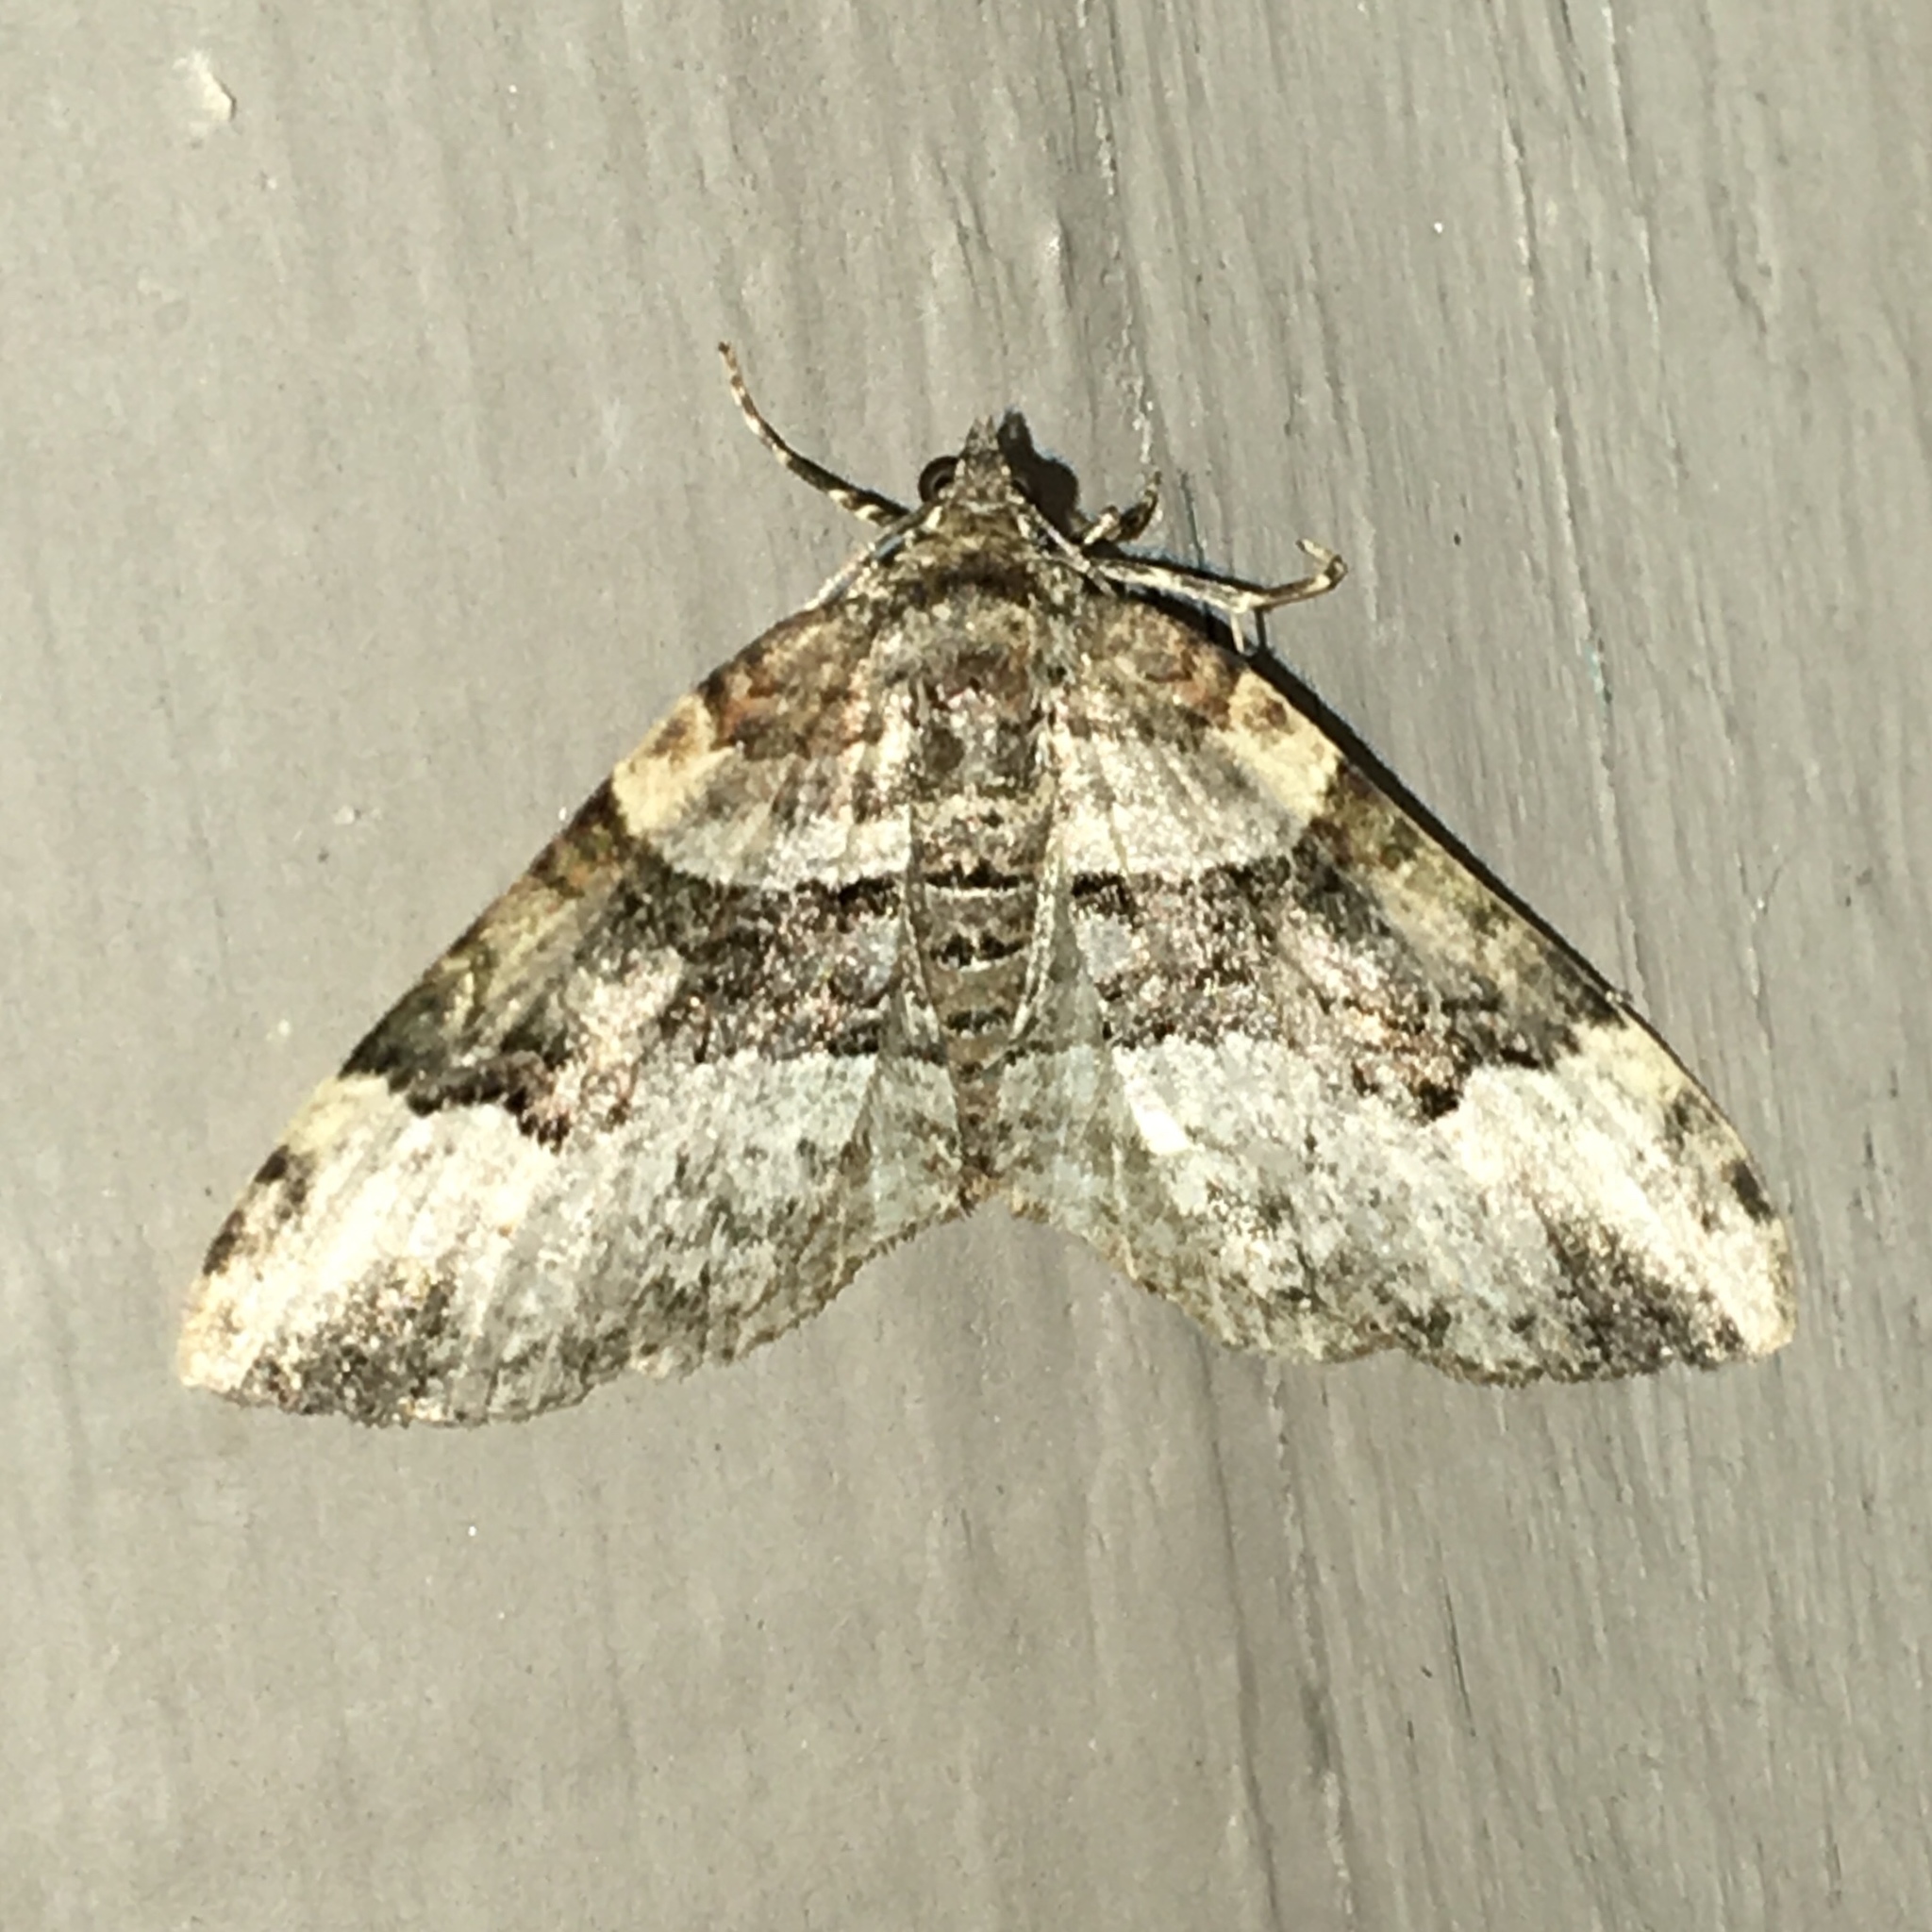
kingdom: Animalia
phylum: Arthropoda
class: Insecta
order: Lepidoptera
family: Geometridae
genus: Xanthorhoe
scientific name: Xanthorhoe lacustrata
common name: Toothed brown carpet
